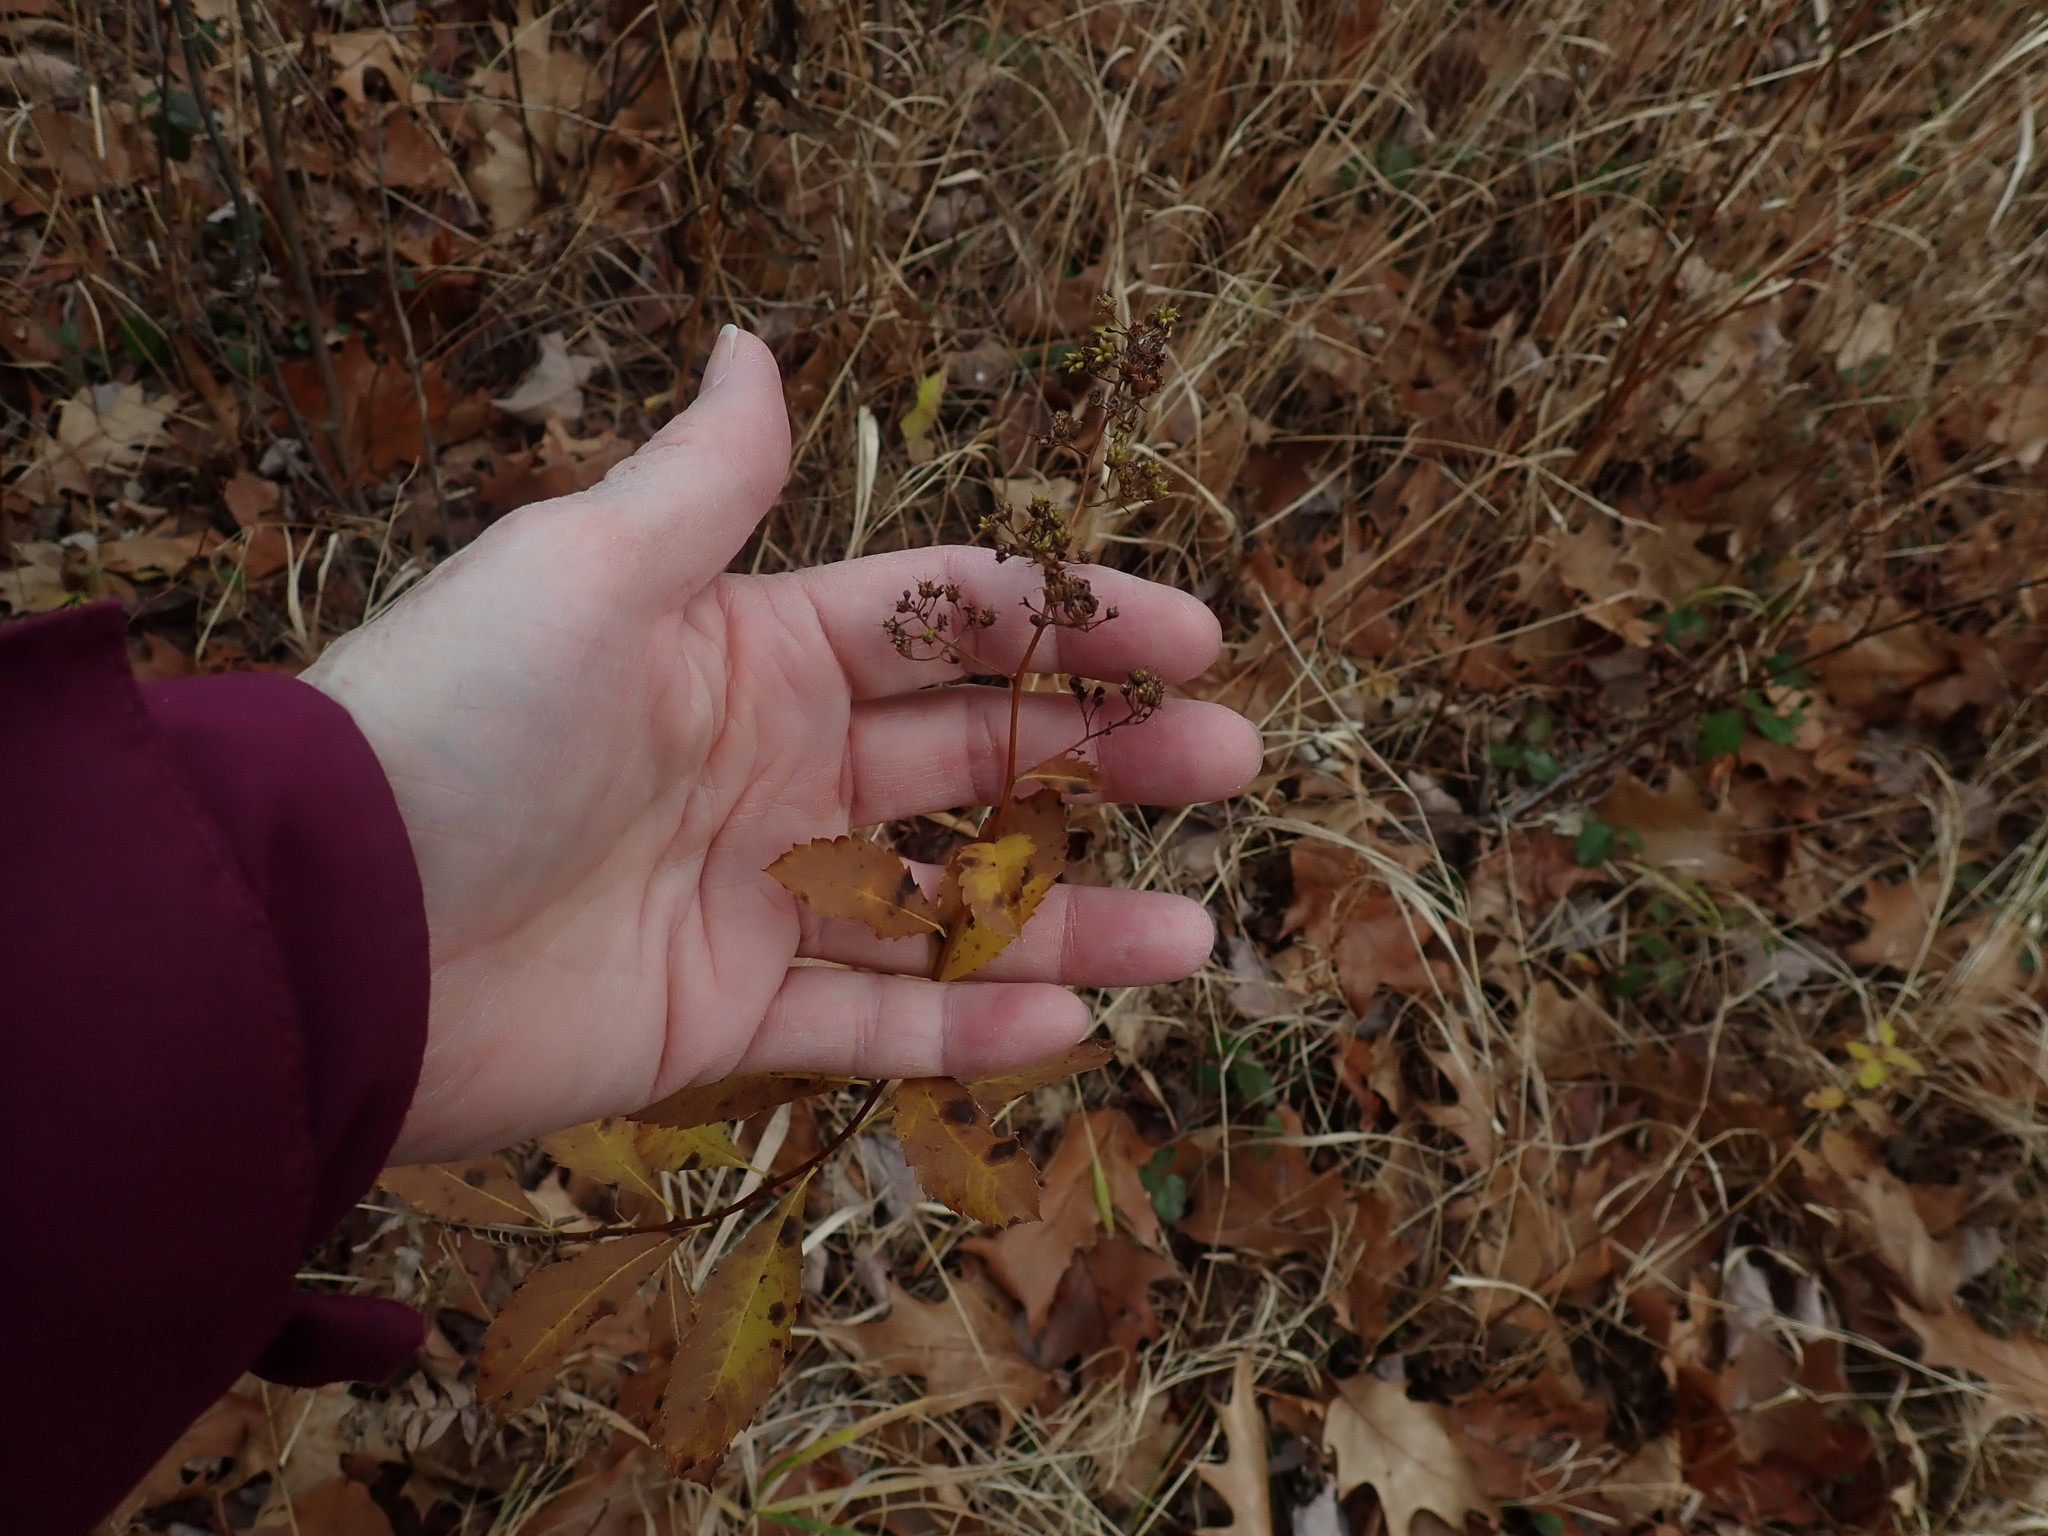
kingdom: Plantae
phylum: Tracheophyta
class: Magnoliopsida
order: Rosales
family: Rosaceae
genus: Spiraea
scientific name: Spiraea alba
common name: Pale bridewort
